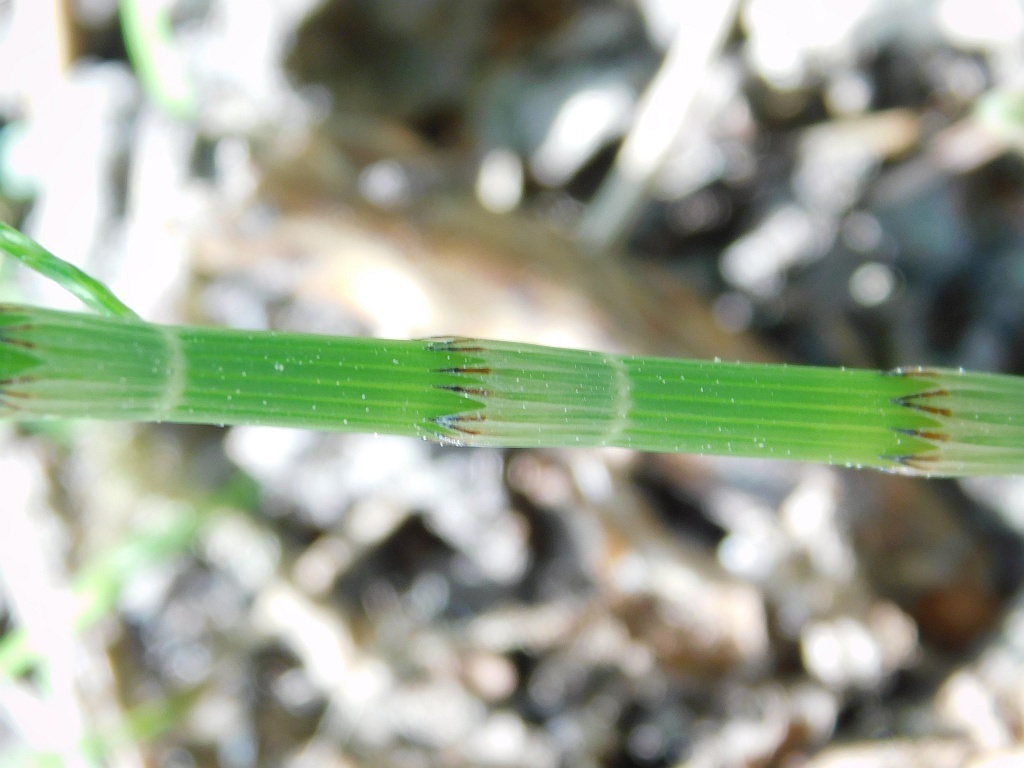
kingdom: Plantae
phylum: Tracheophyta
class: Polypodiopsida
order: Equisetales
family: Equisetaceae
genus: Equisetum
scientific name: Equisetum arvense
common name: Field horsetail
